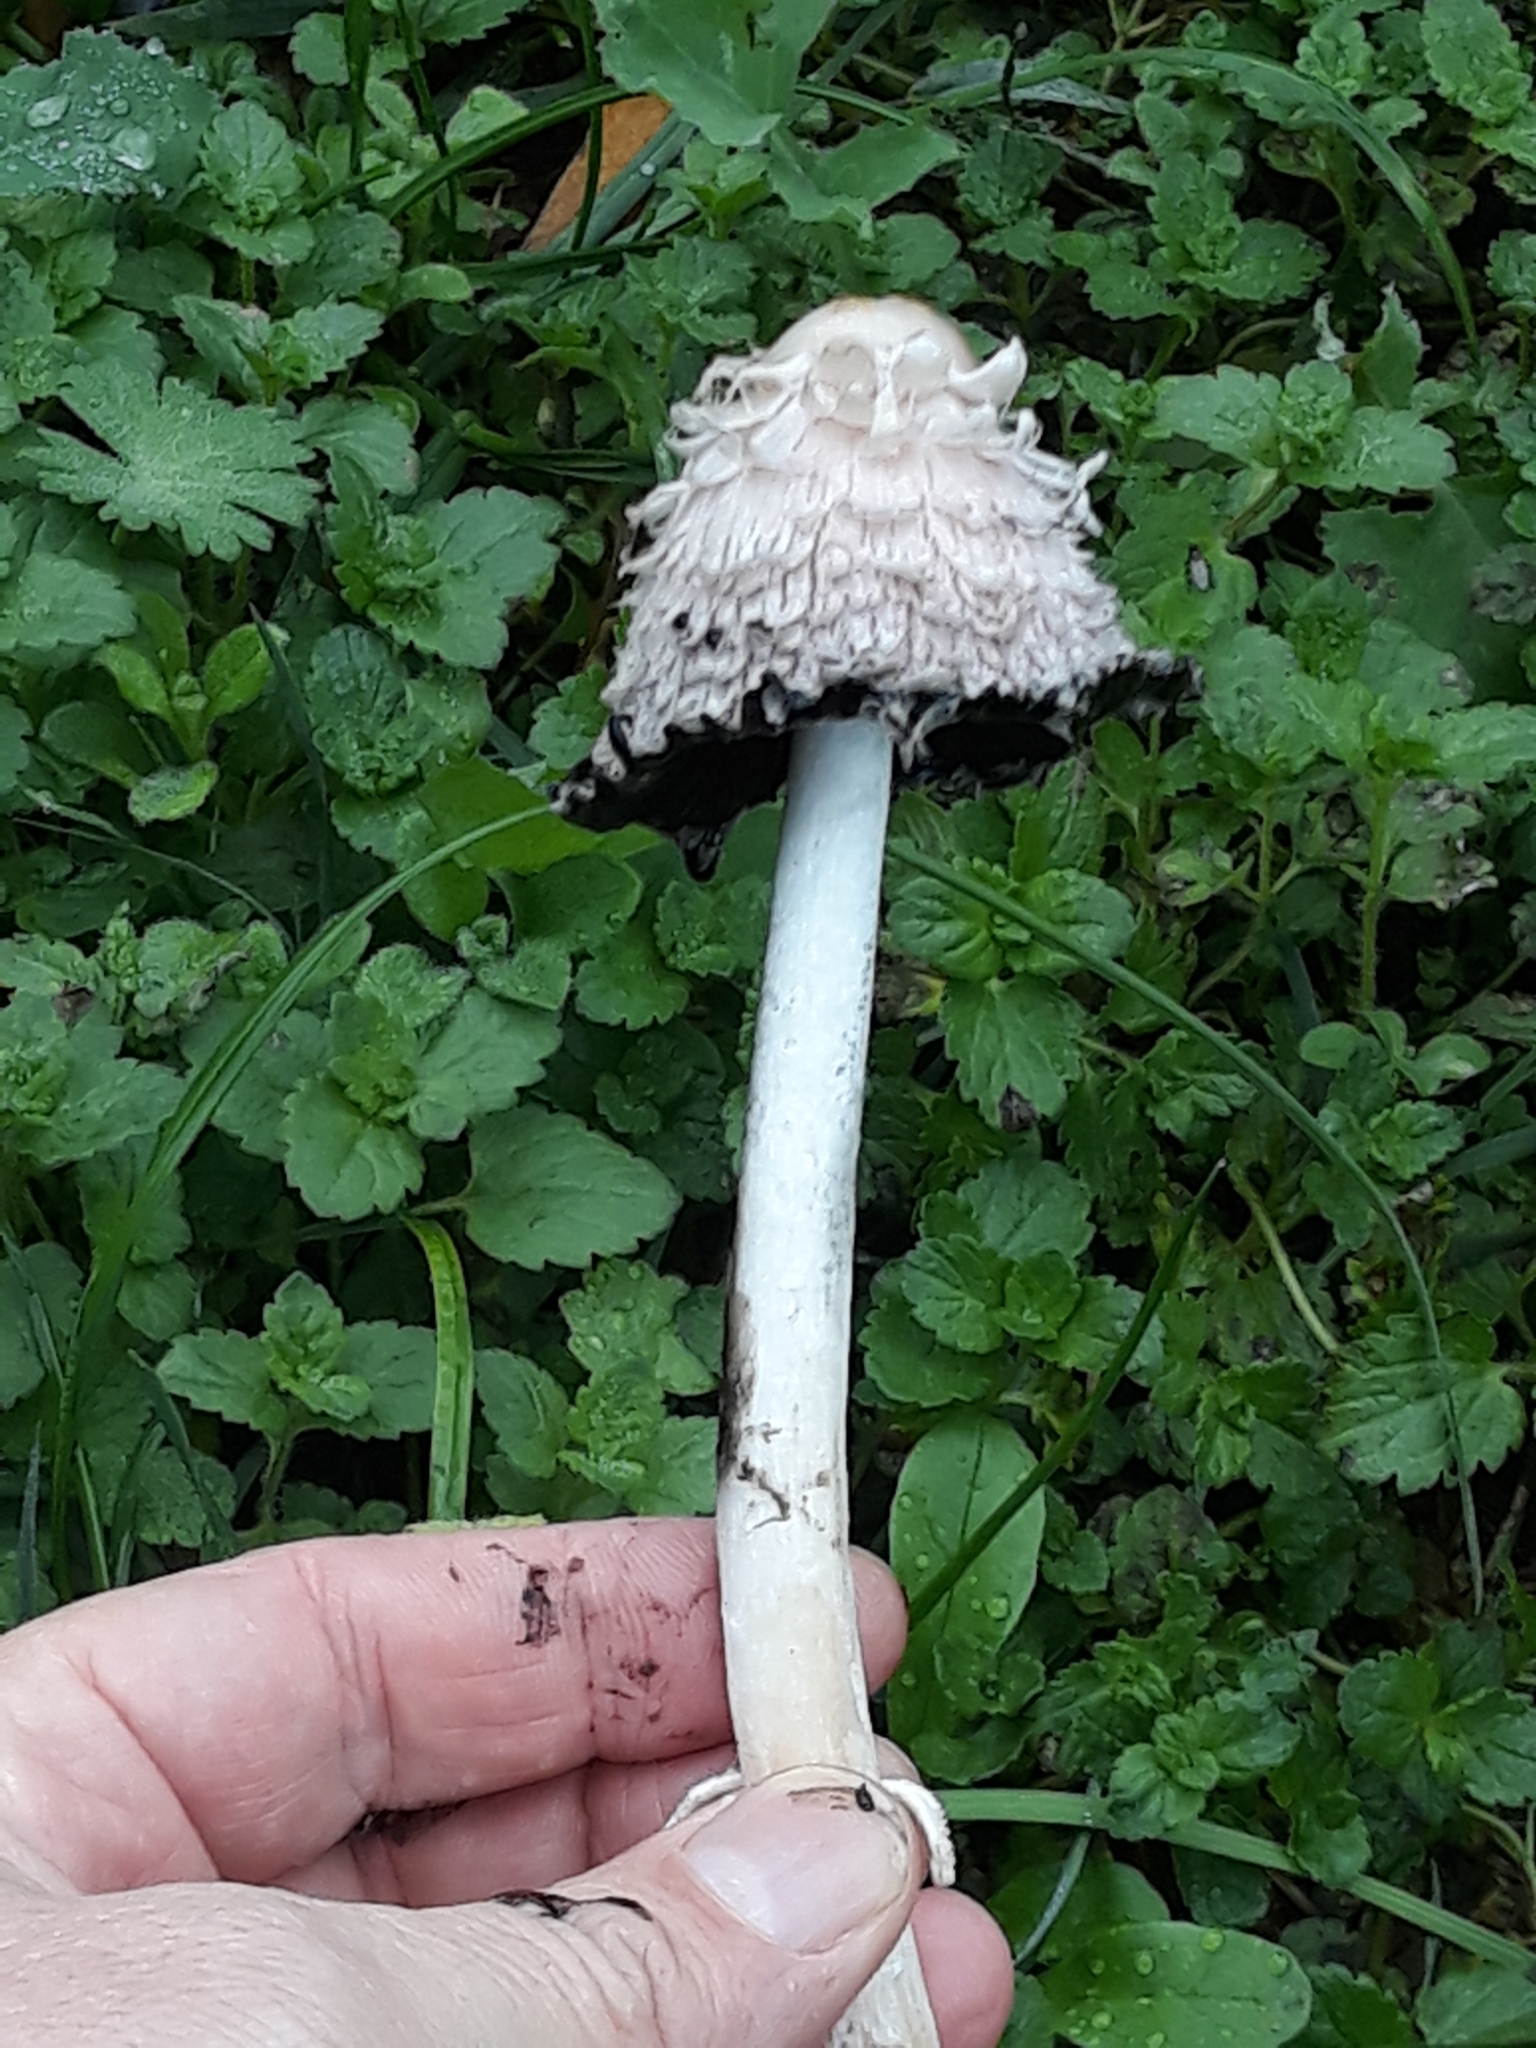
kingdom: Fungi
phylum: Basidiomycota
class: Agaricomycetes
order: Agaricales
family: Agaricaceae
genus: Coprinus
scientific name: Coprinus comatus
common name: Lawyer's wig
